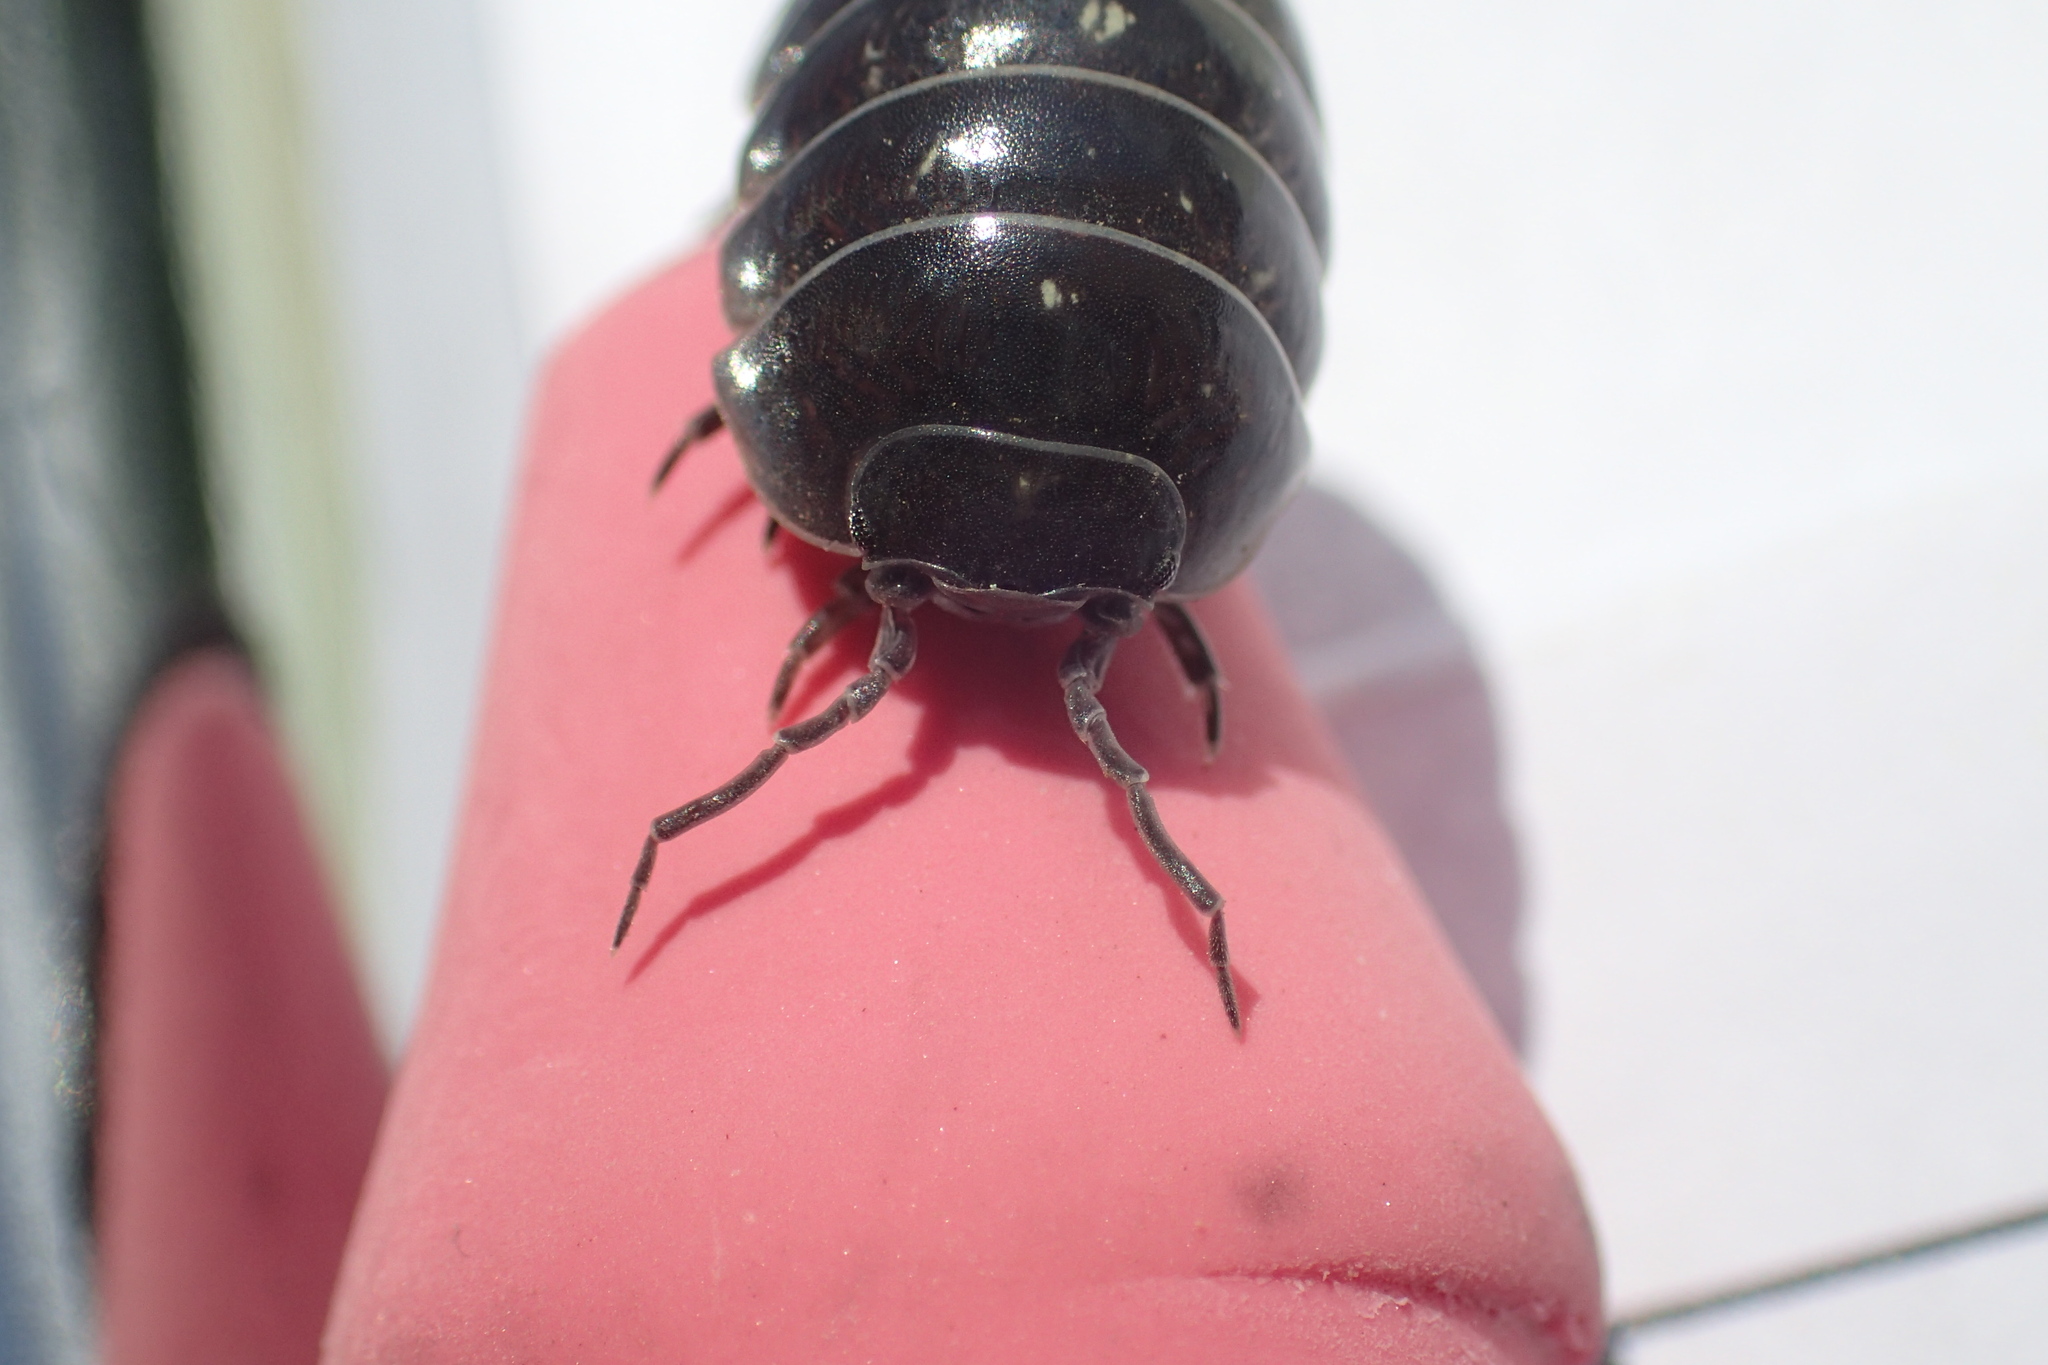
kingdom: Animalia
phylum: Arthropoda
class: Malacostraca
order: Isopoda
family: Armadillidiidae
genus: Armadillidium
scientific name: Armadillidium vulgare
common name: Common pill woodlouse
